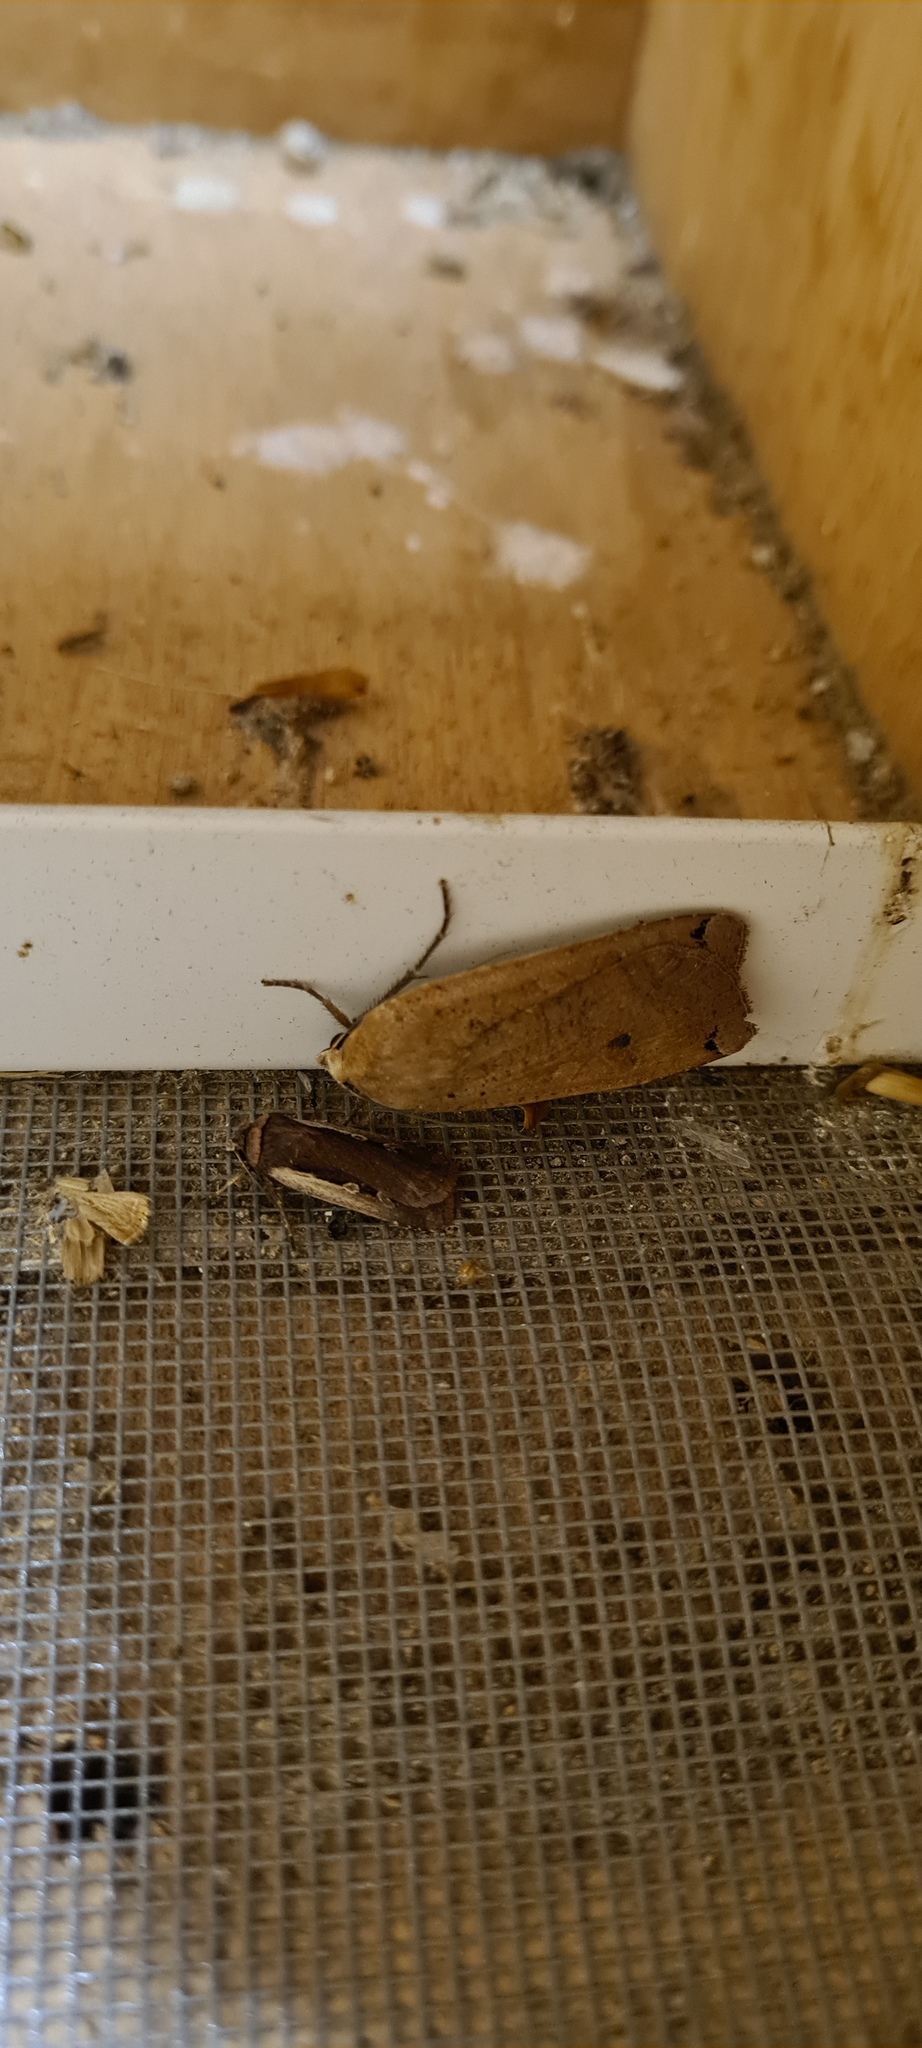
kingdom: Animalia
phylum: Arthropoda
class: Insecta
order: Lepidoptera
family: Noctuidae
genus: Noctua
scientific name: Noctua pronuba
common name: Large yellow underwing
